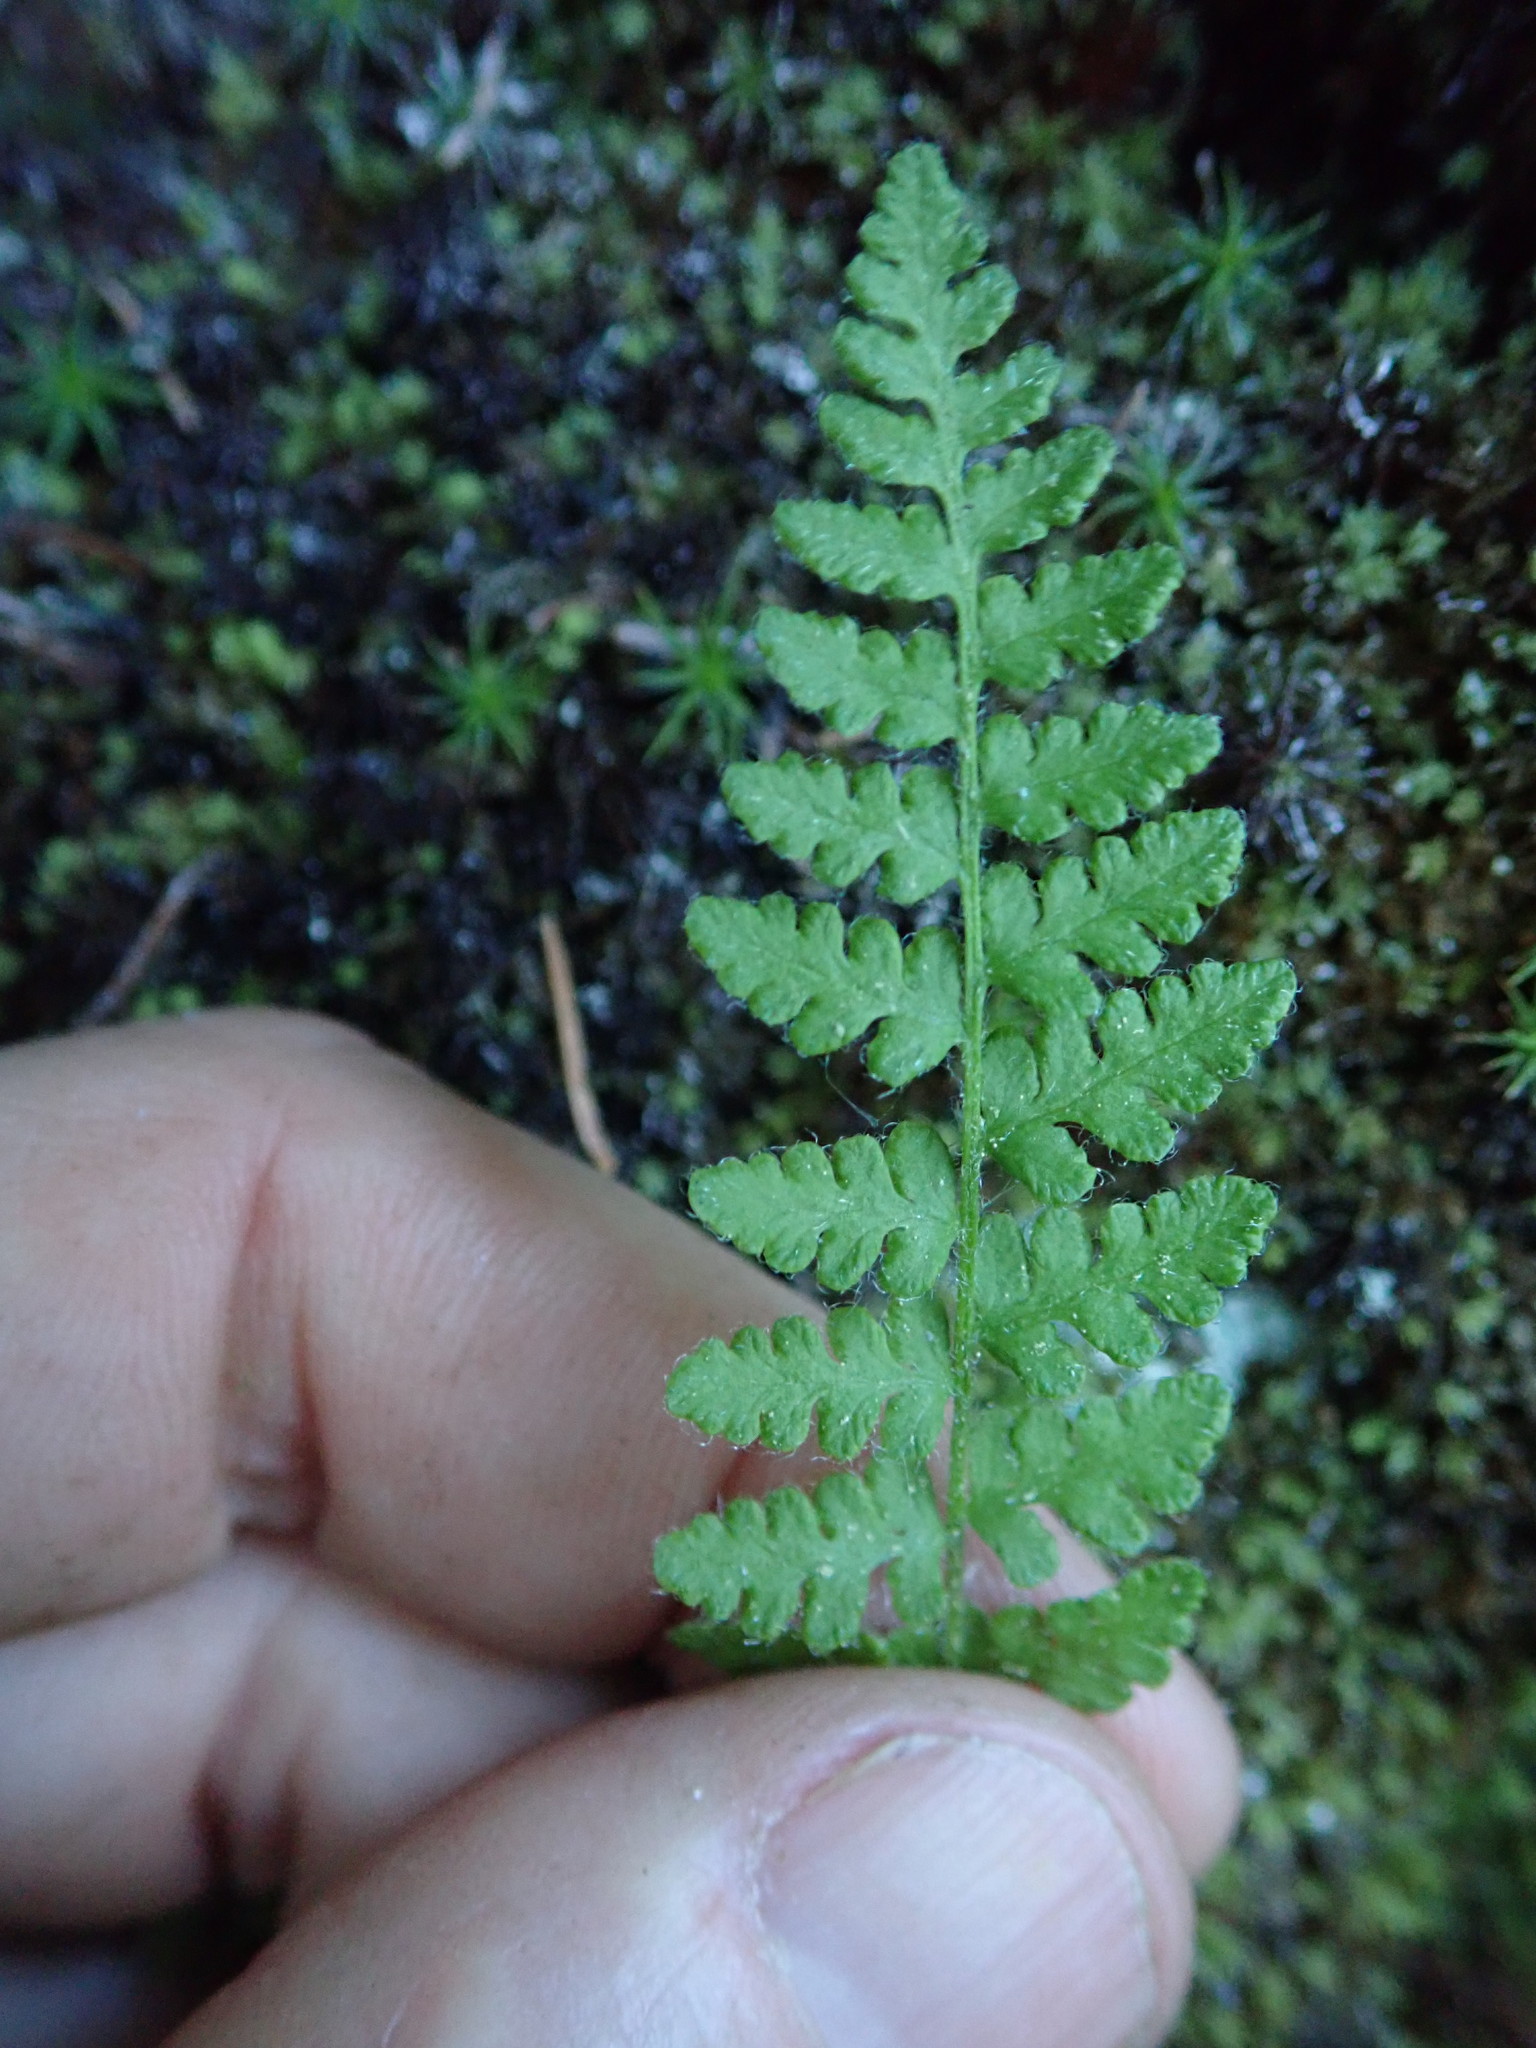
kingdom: Plantae
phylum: Tracheophyta
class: Polypodiopsida
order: Polypodiales
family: Cystopteridaceae
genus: Cystopteris
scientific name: Cystopteris fragilis
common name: Brittle bladder fern
